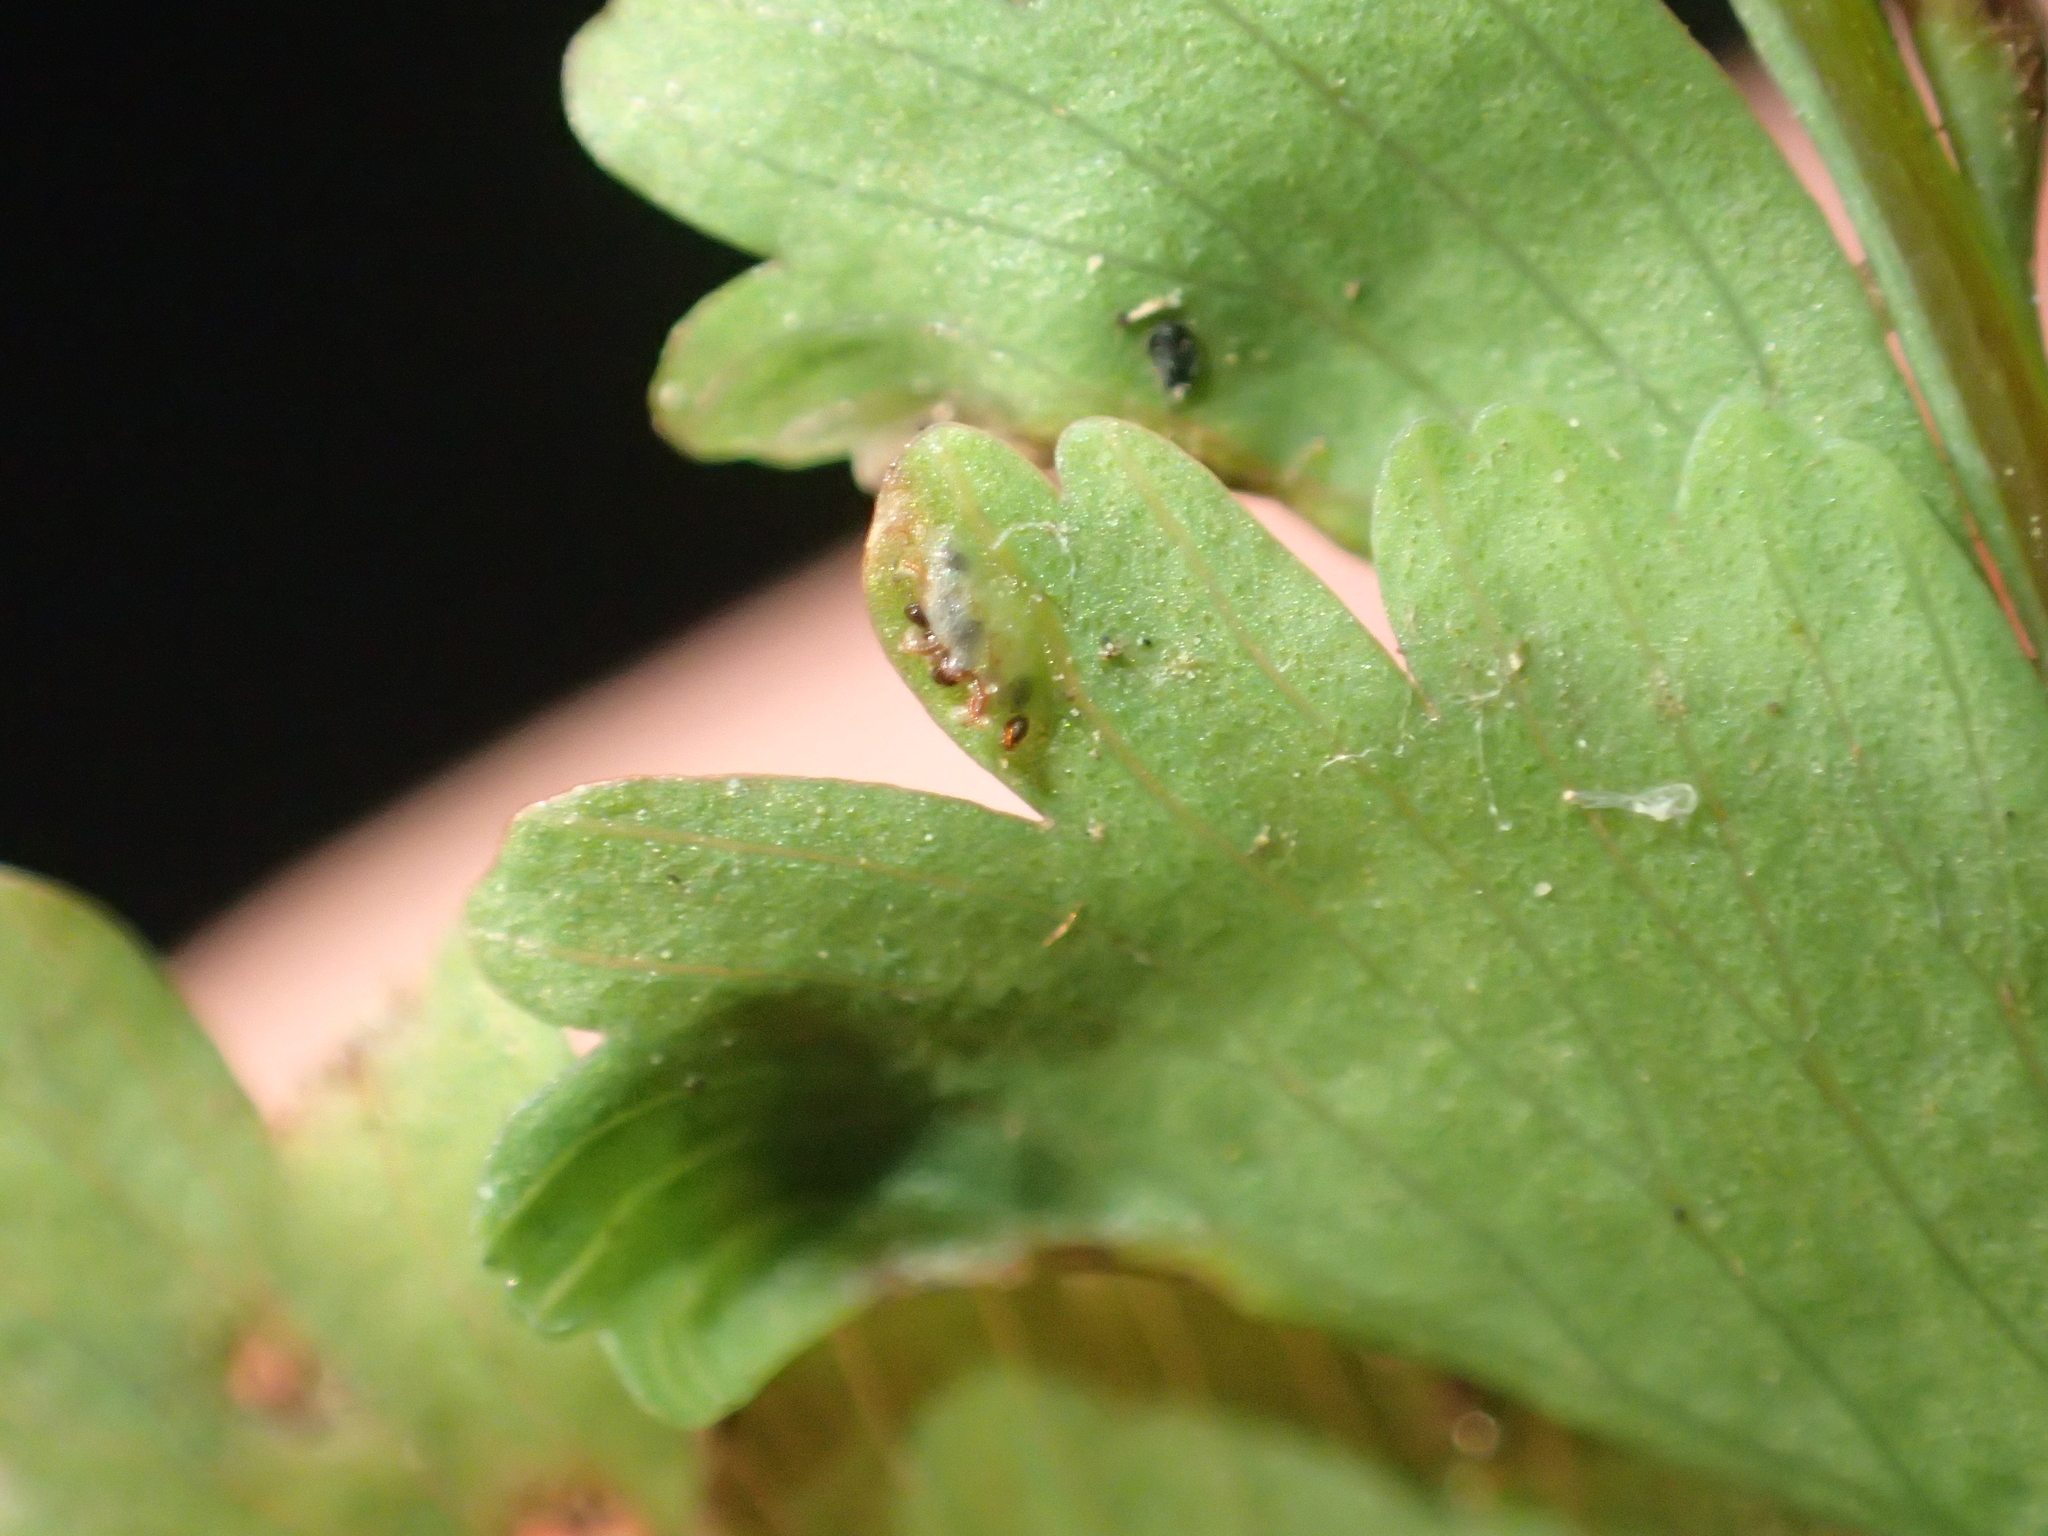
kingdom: Plantae
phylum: Tracheophyta
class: Polypodiopsida
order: Polypodiales
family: Aspleniaceae
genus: Hymenasplenium
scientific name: Hymenasplenium cheilosorum
